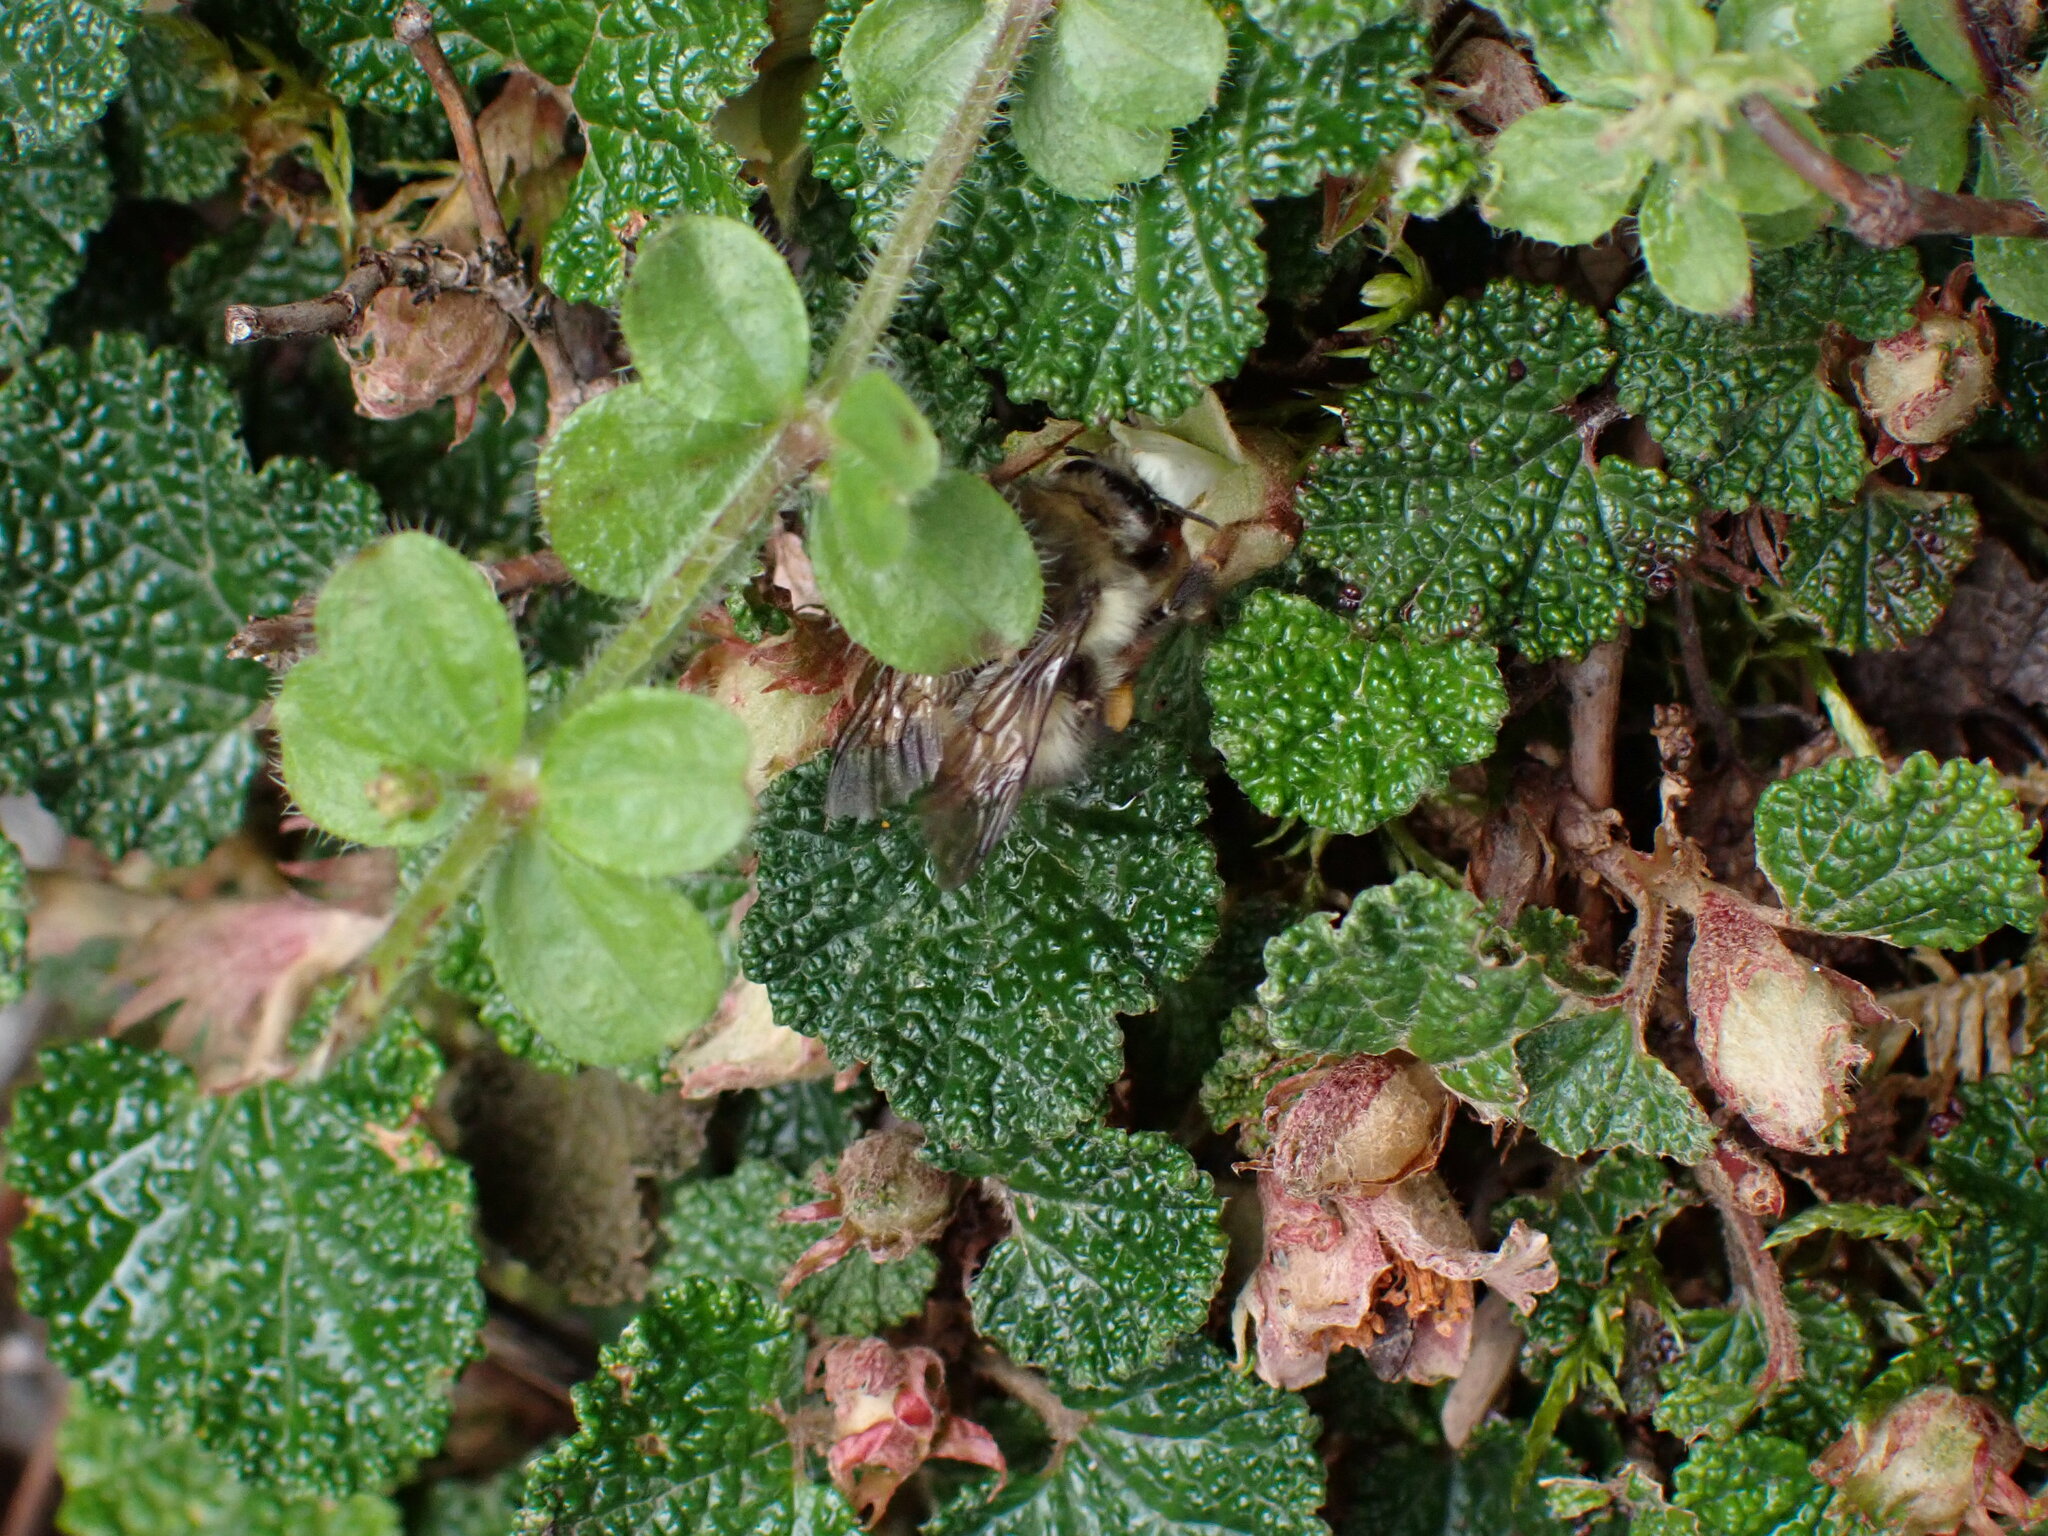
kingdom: Animalia
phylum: Arthropoda
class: Insecta
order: Hymenoptera
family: Apidae
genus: Bombus
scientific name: Bombus sonani
